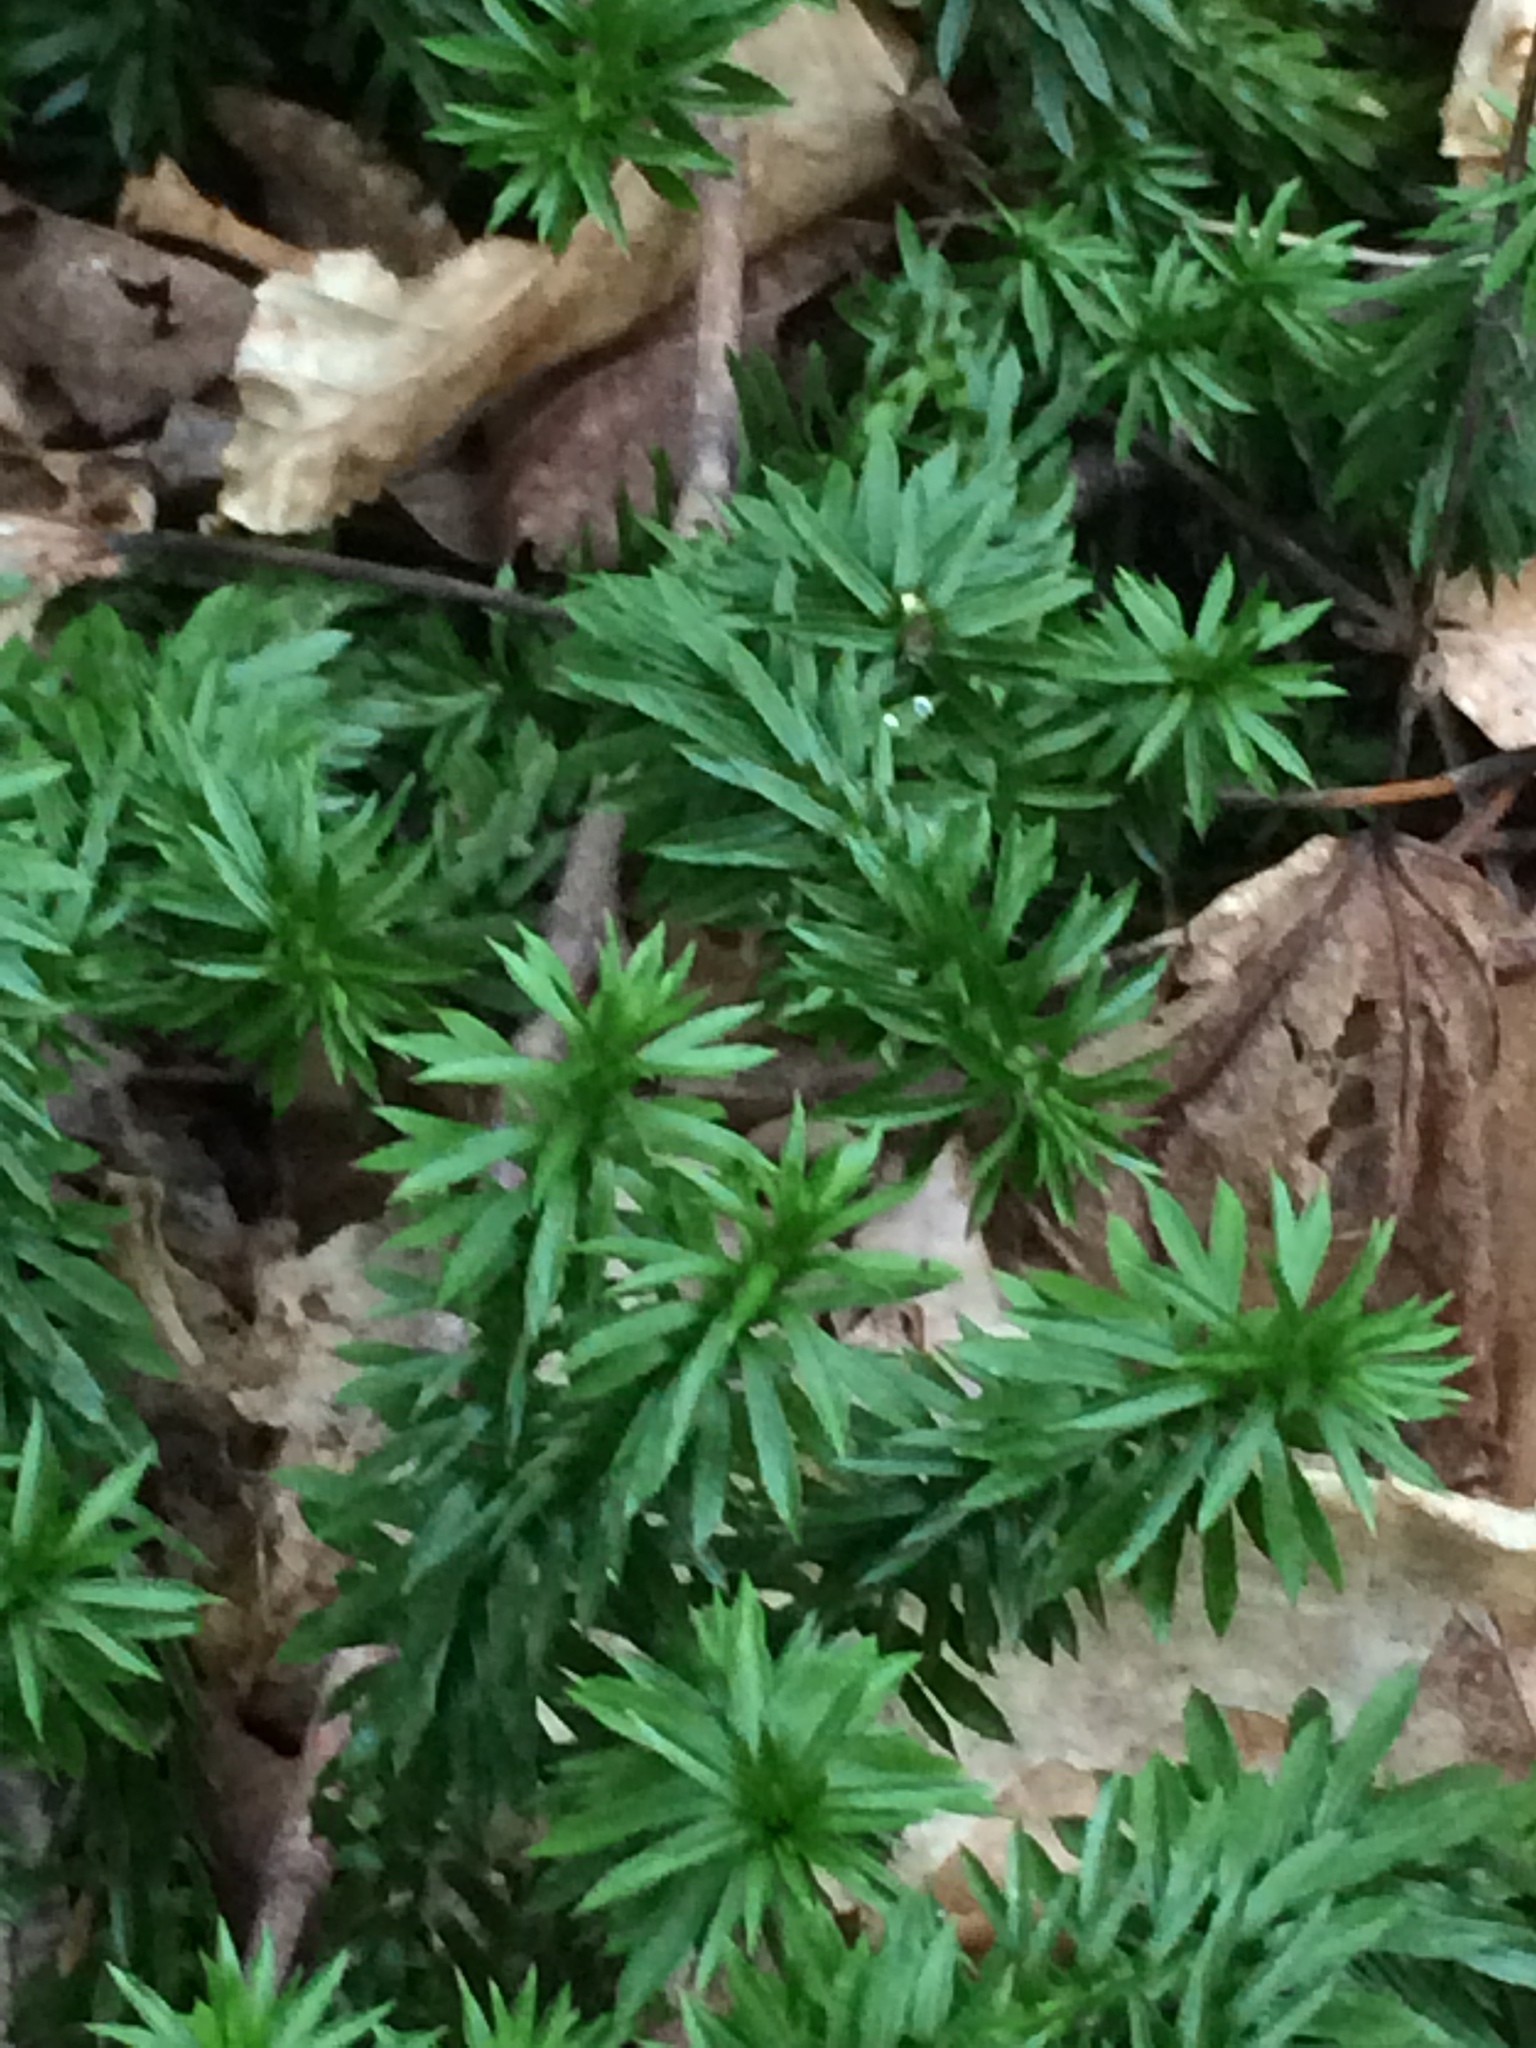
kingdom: Plantae
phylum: Tracheophyta
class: Lycopodiopsida
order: Lycopodiales
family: Lycopodiaceae
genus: Huperzia
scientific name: Huperzia lucidula
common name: Shining clubmoss
